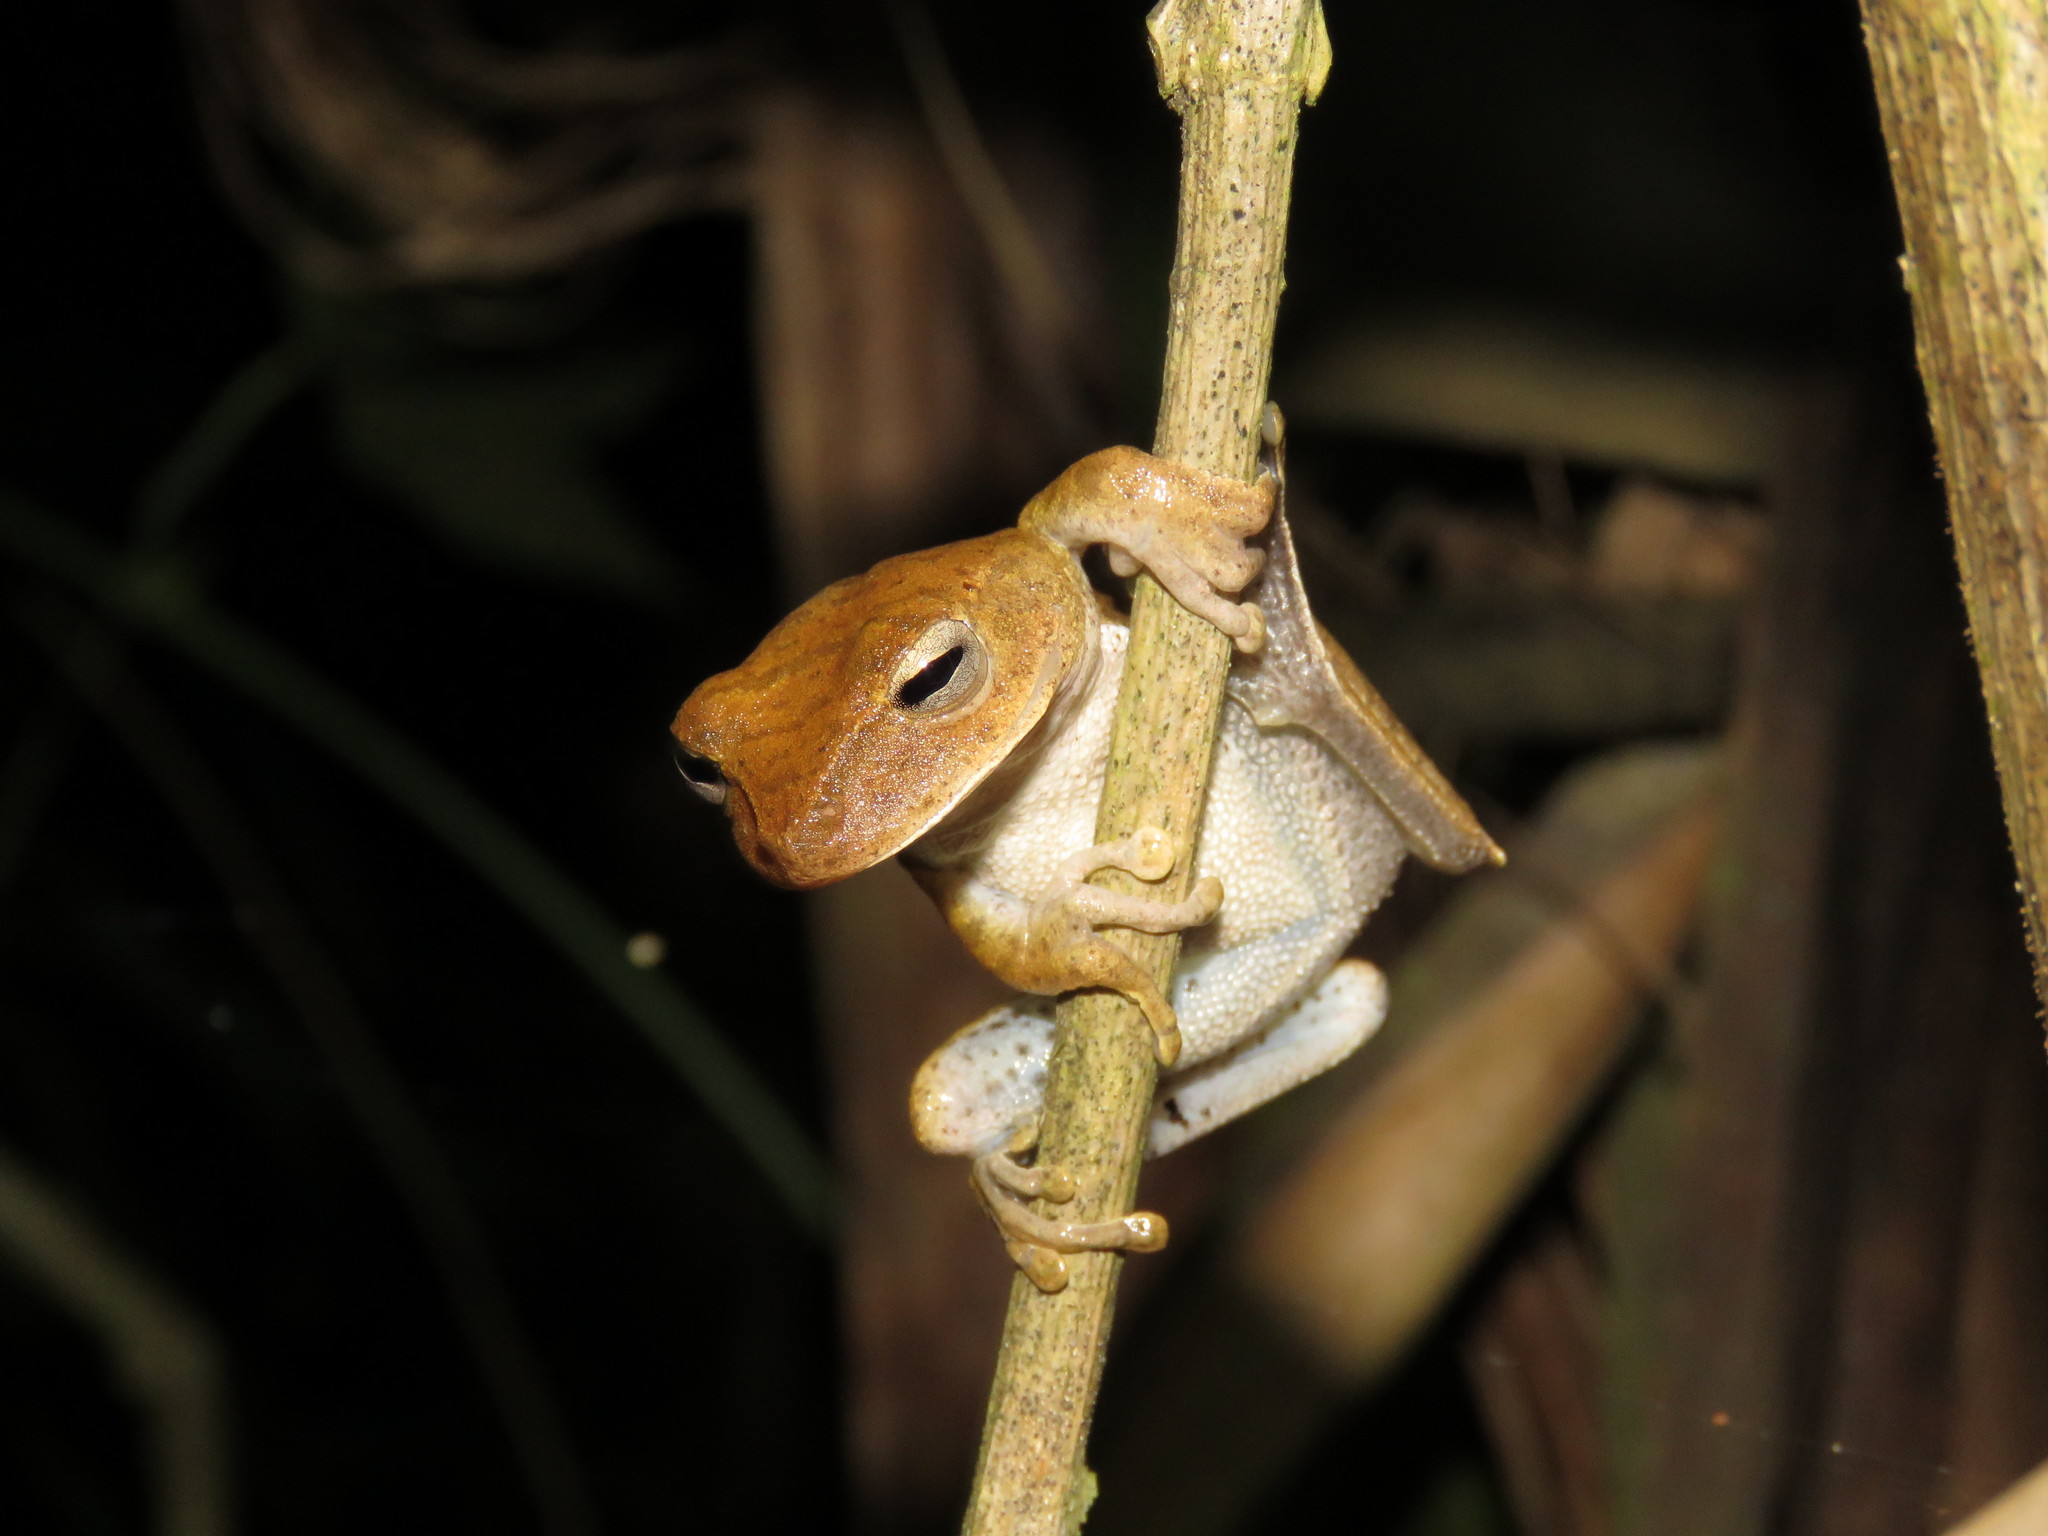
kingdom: Animalia
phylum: Chordata
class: Amphibia
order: Anura
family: Hylidae
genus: Boana
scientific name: Boana steinbachi
